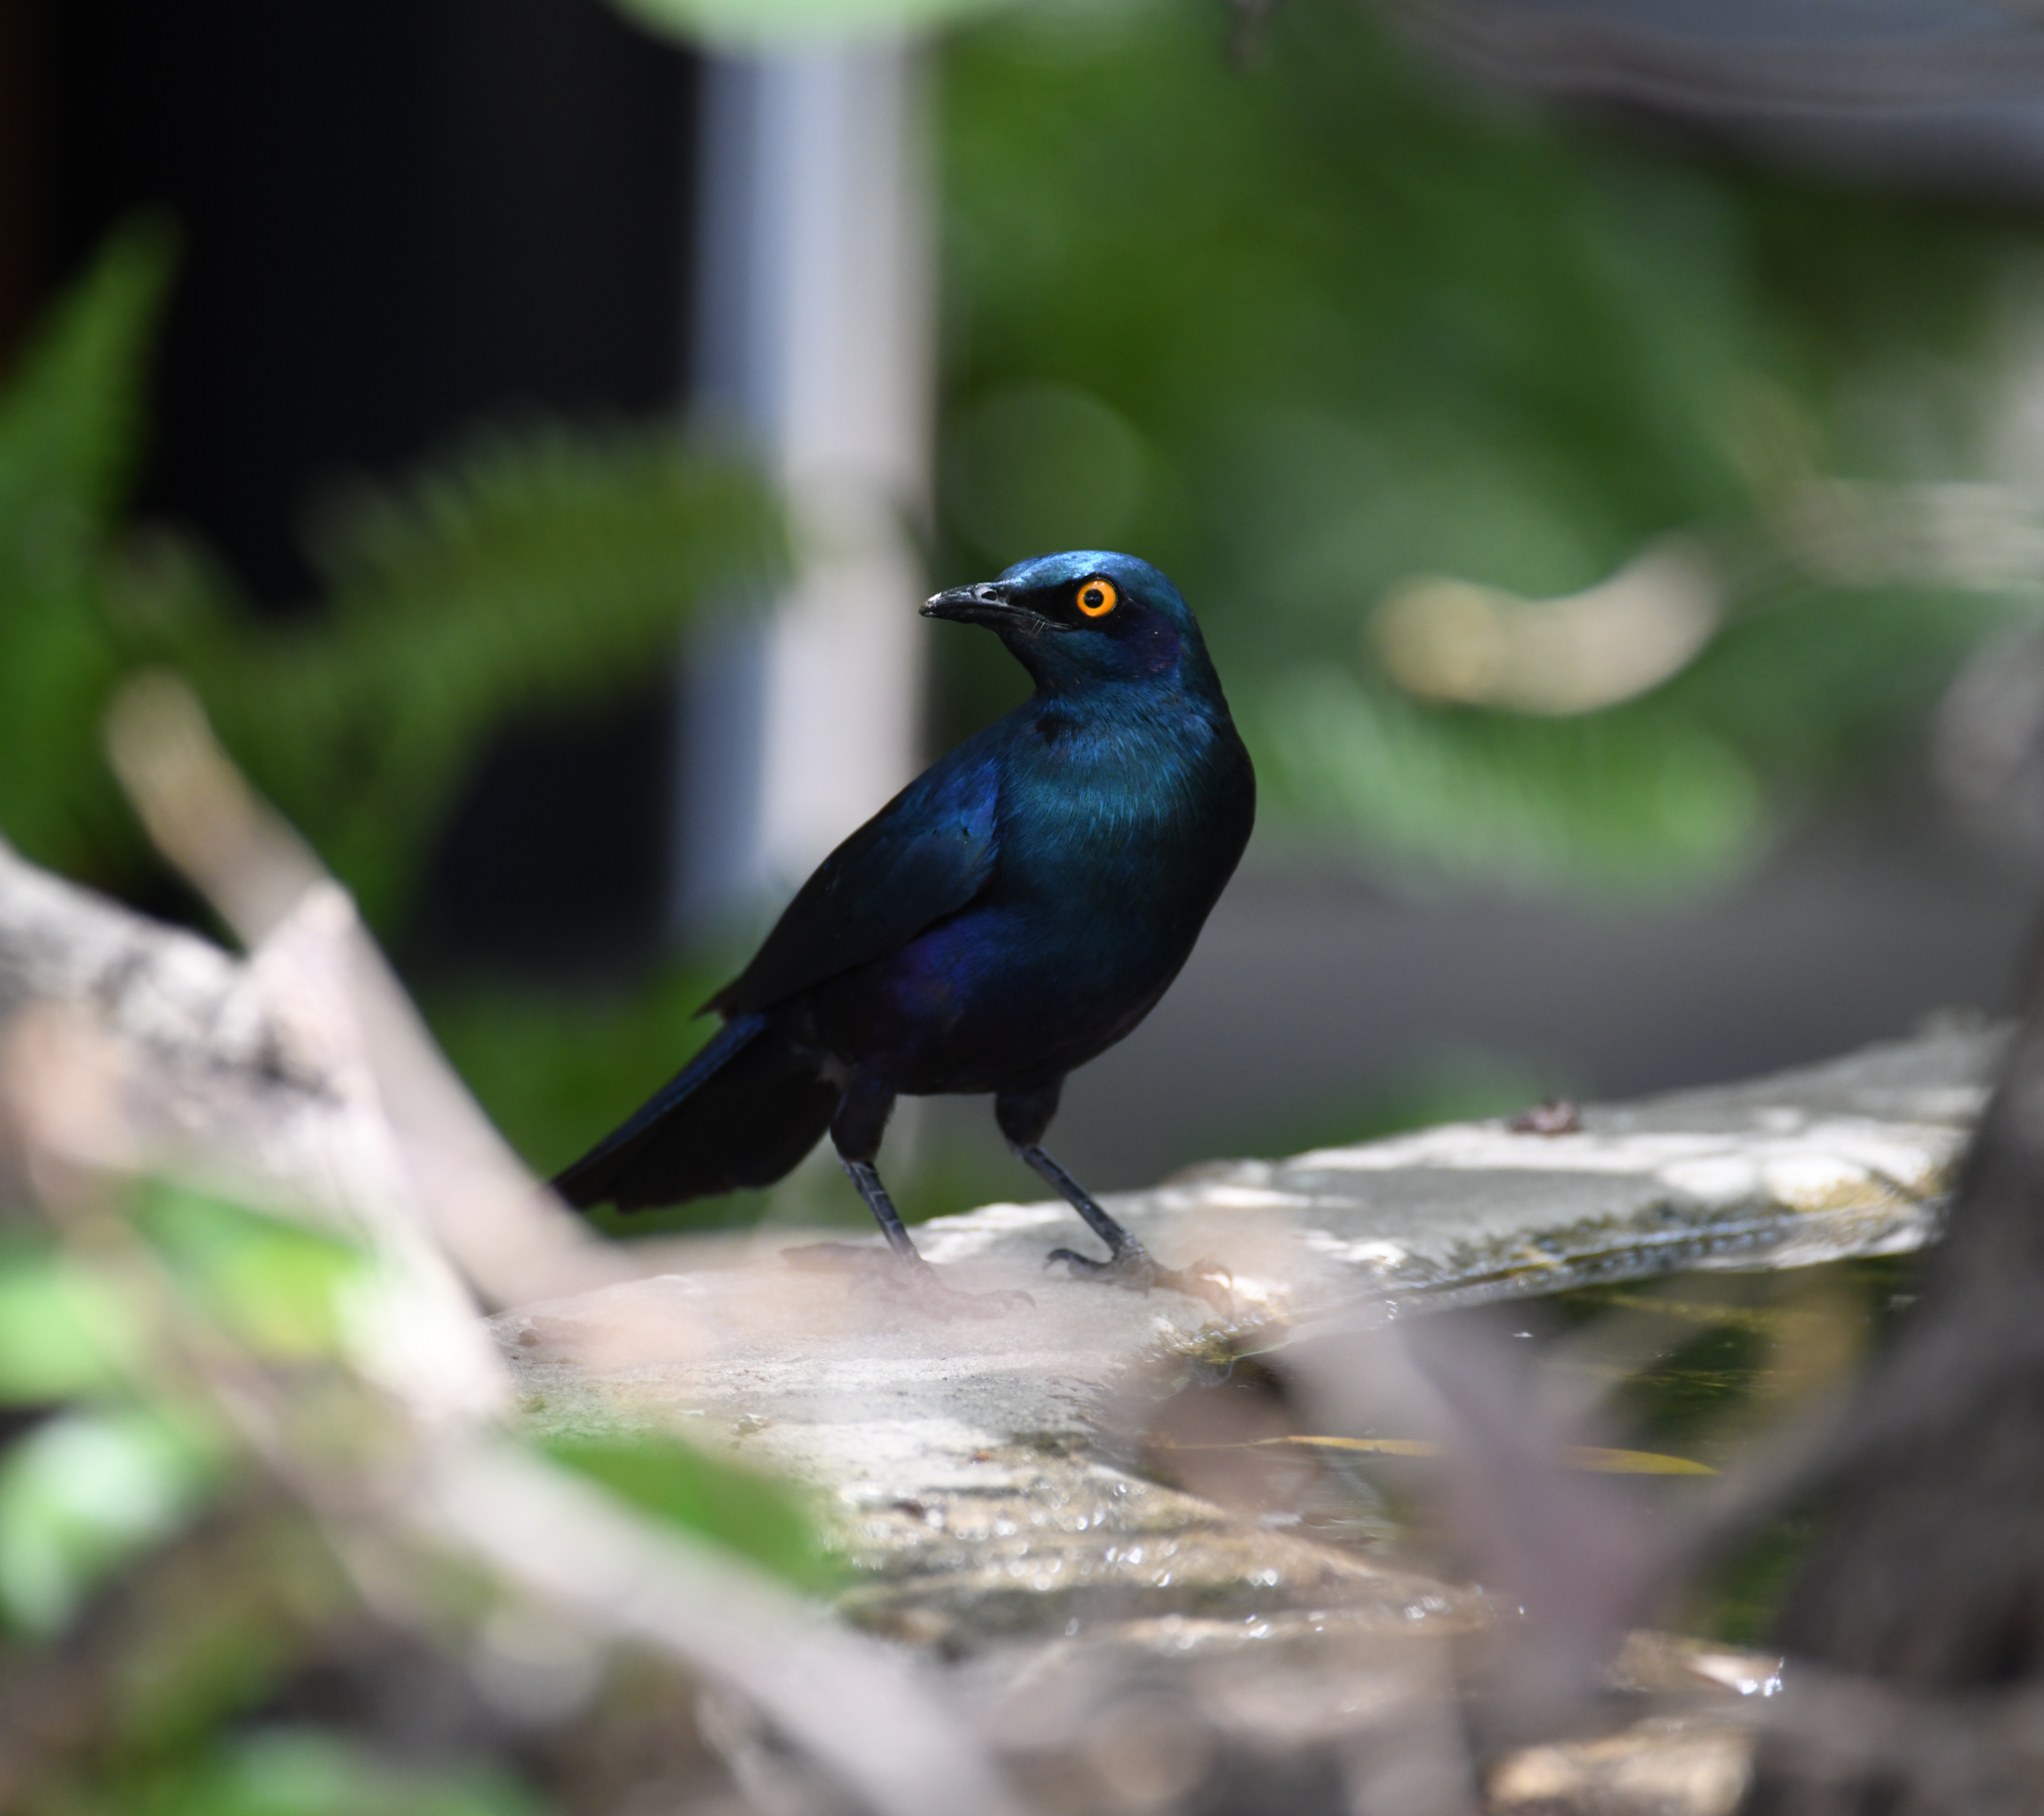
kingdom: Animalia
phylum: Chordata
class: Aves
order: Passeriformes
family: Sturnidae
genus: Lamprotornis
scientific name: Lamprotornis chalybaeus
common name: Greater blue-eared starling
